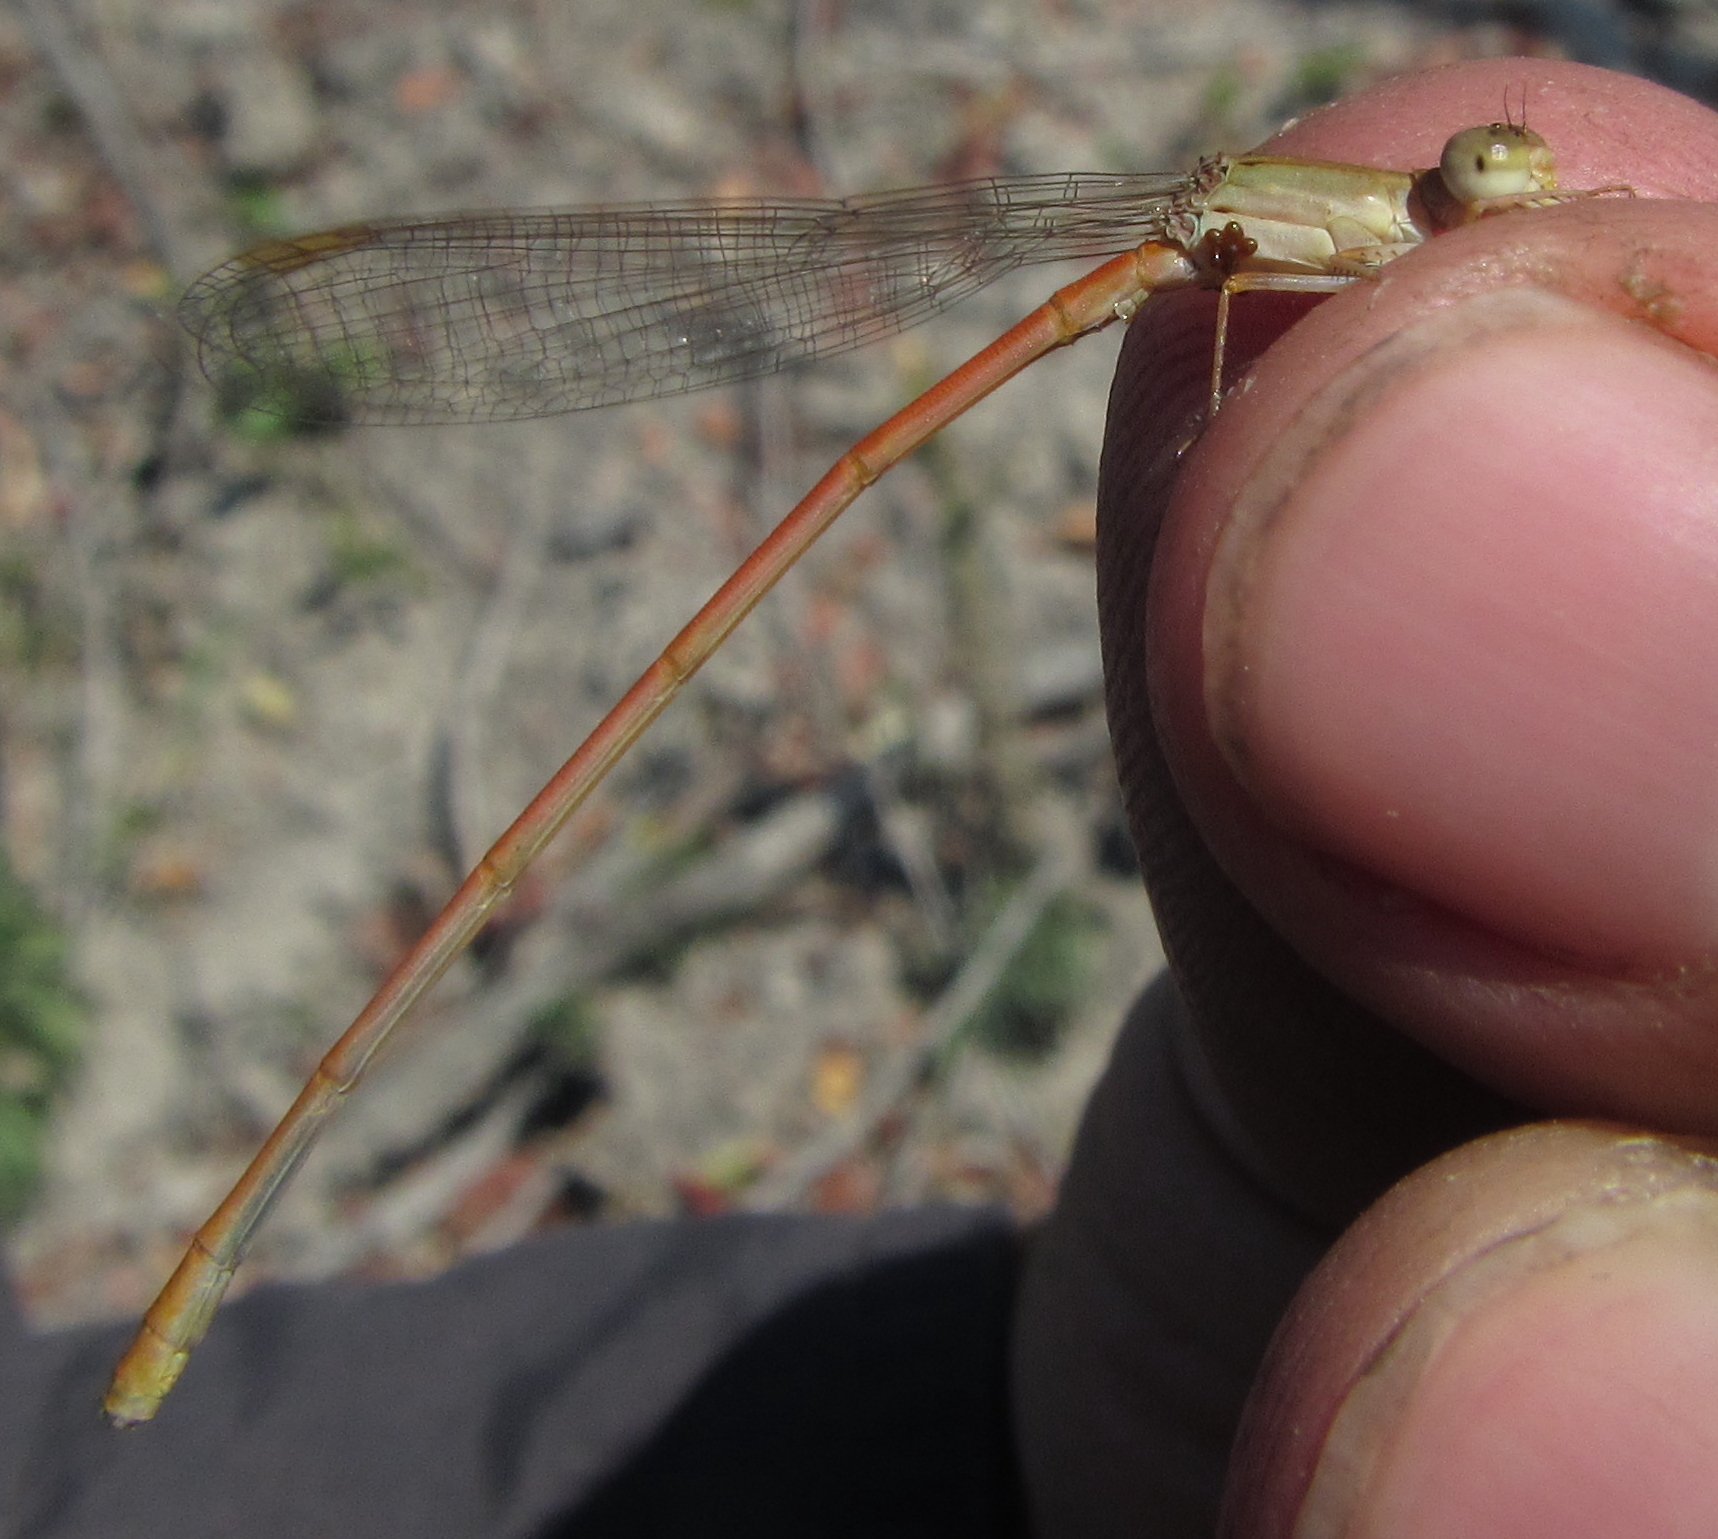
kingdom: Animalia
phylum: Arthropoda
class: Insecta
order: Odonata
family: Coenagrionidae
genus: Ceriagrion
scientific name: Ceriagrion glabrum
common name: Common pond damsel
